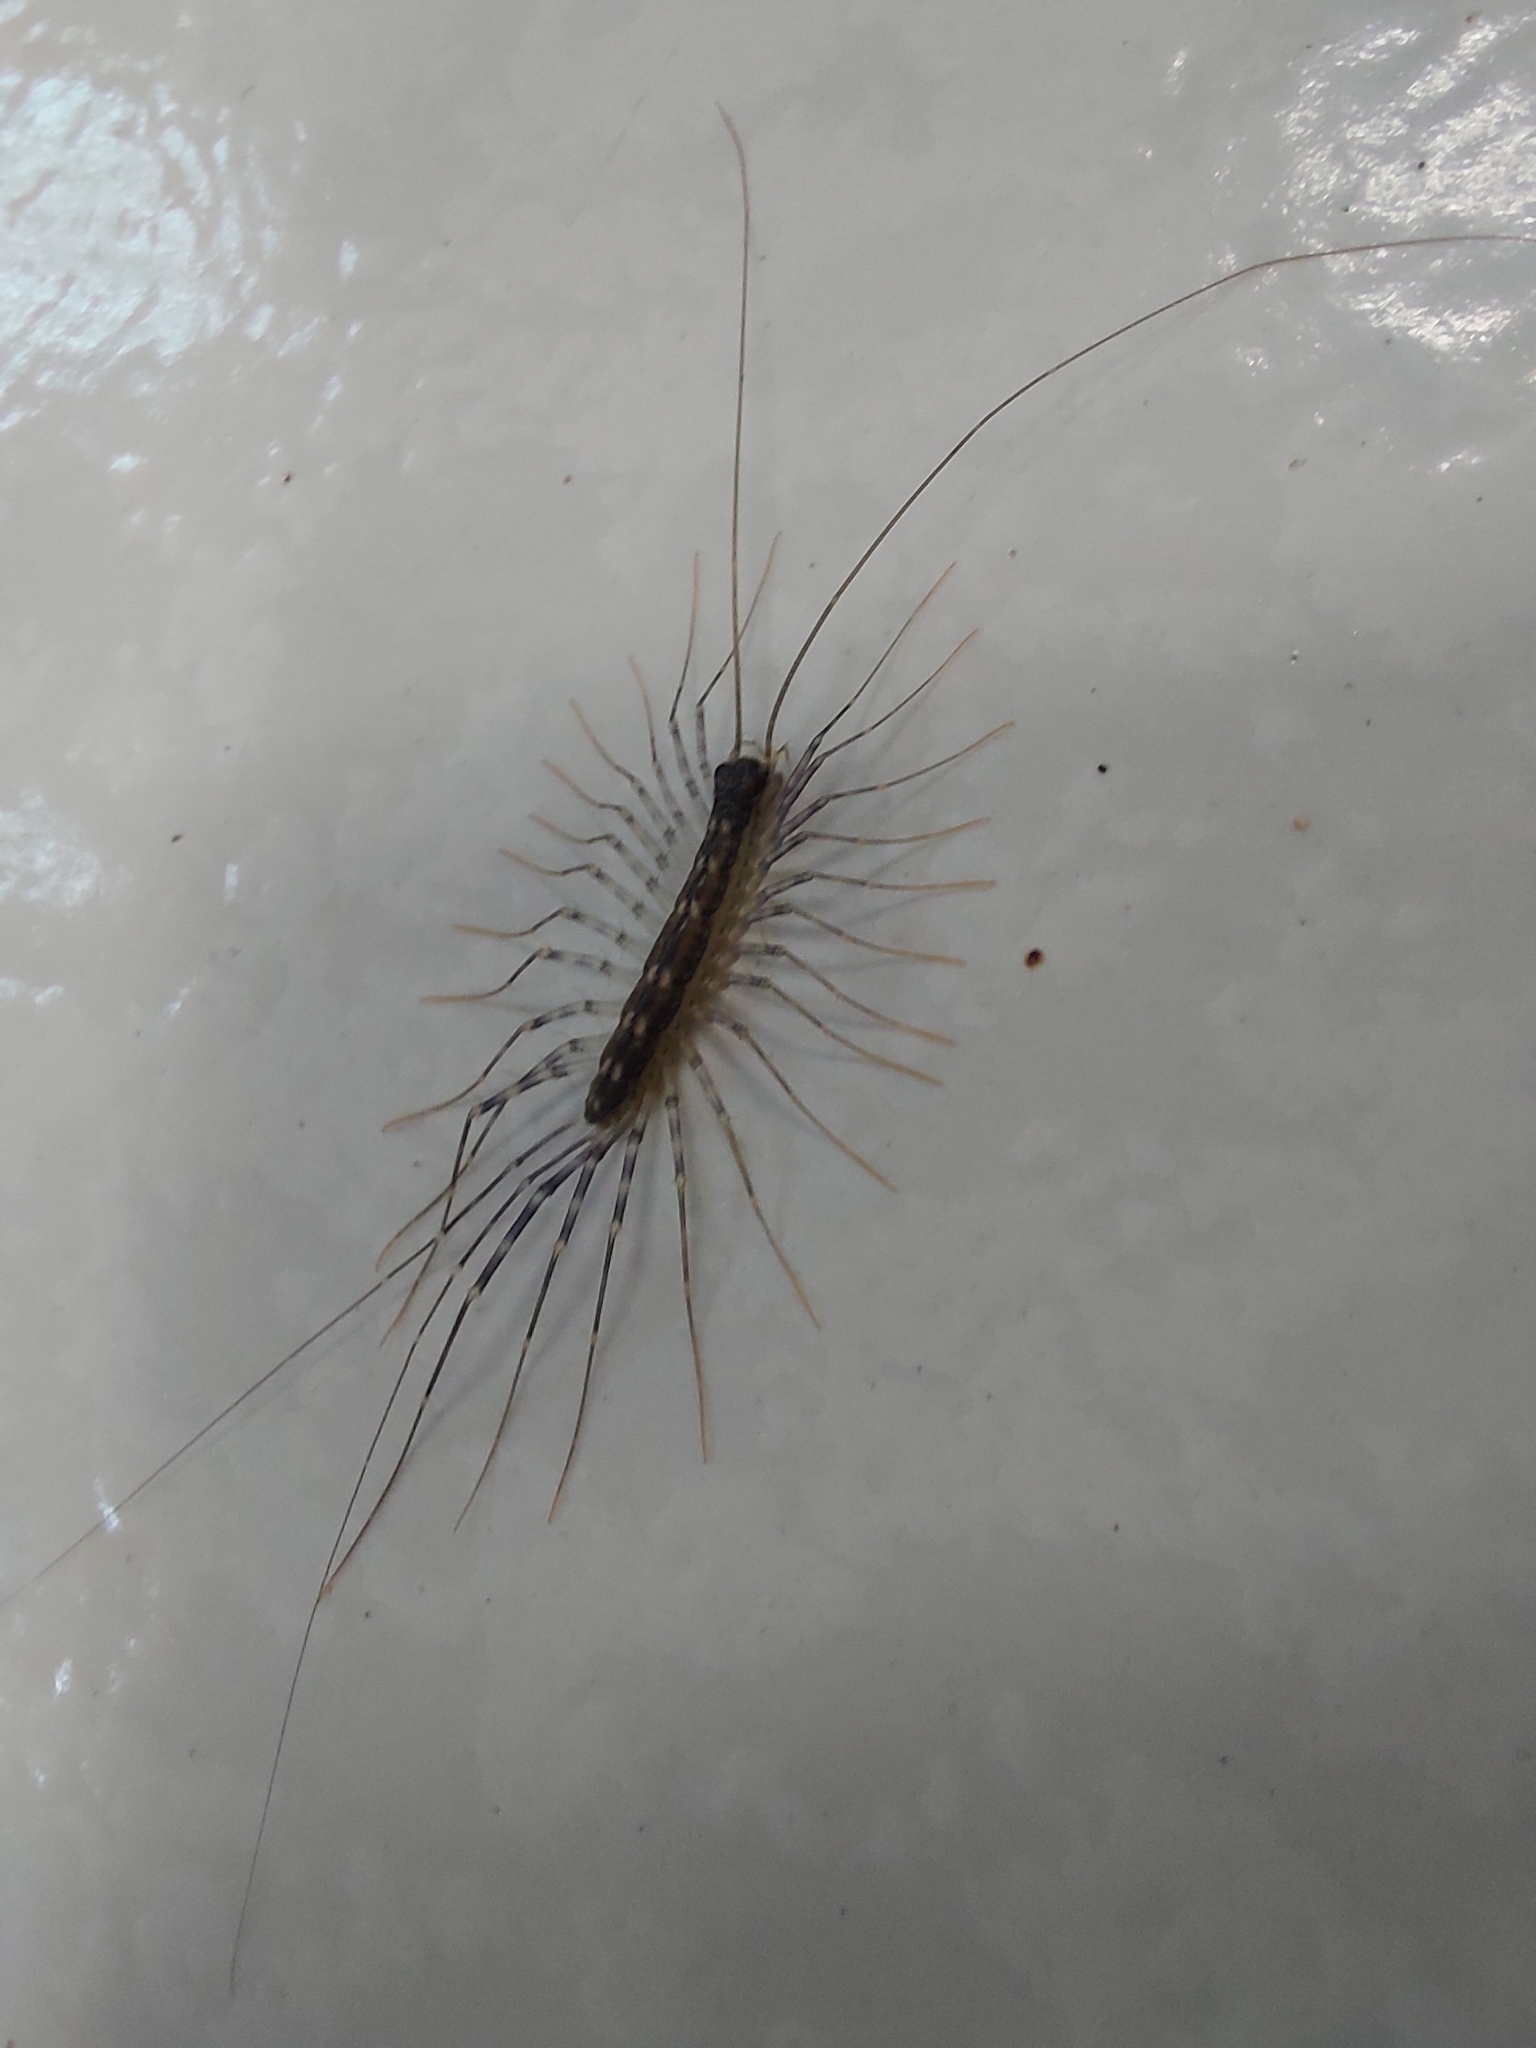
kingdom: Animalia
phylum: Arthropoda
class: Chilopoda
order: Scutigeromorpha
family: Scutigeridae
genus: Scutigera
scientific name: Scutigera coleoptrata
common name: House centipede
